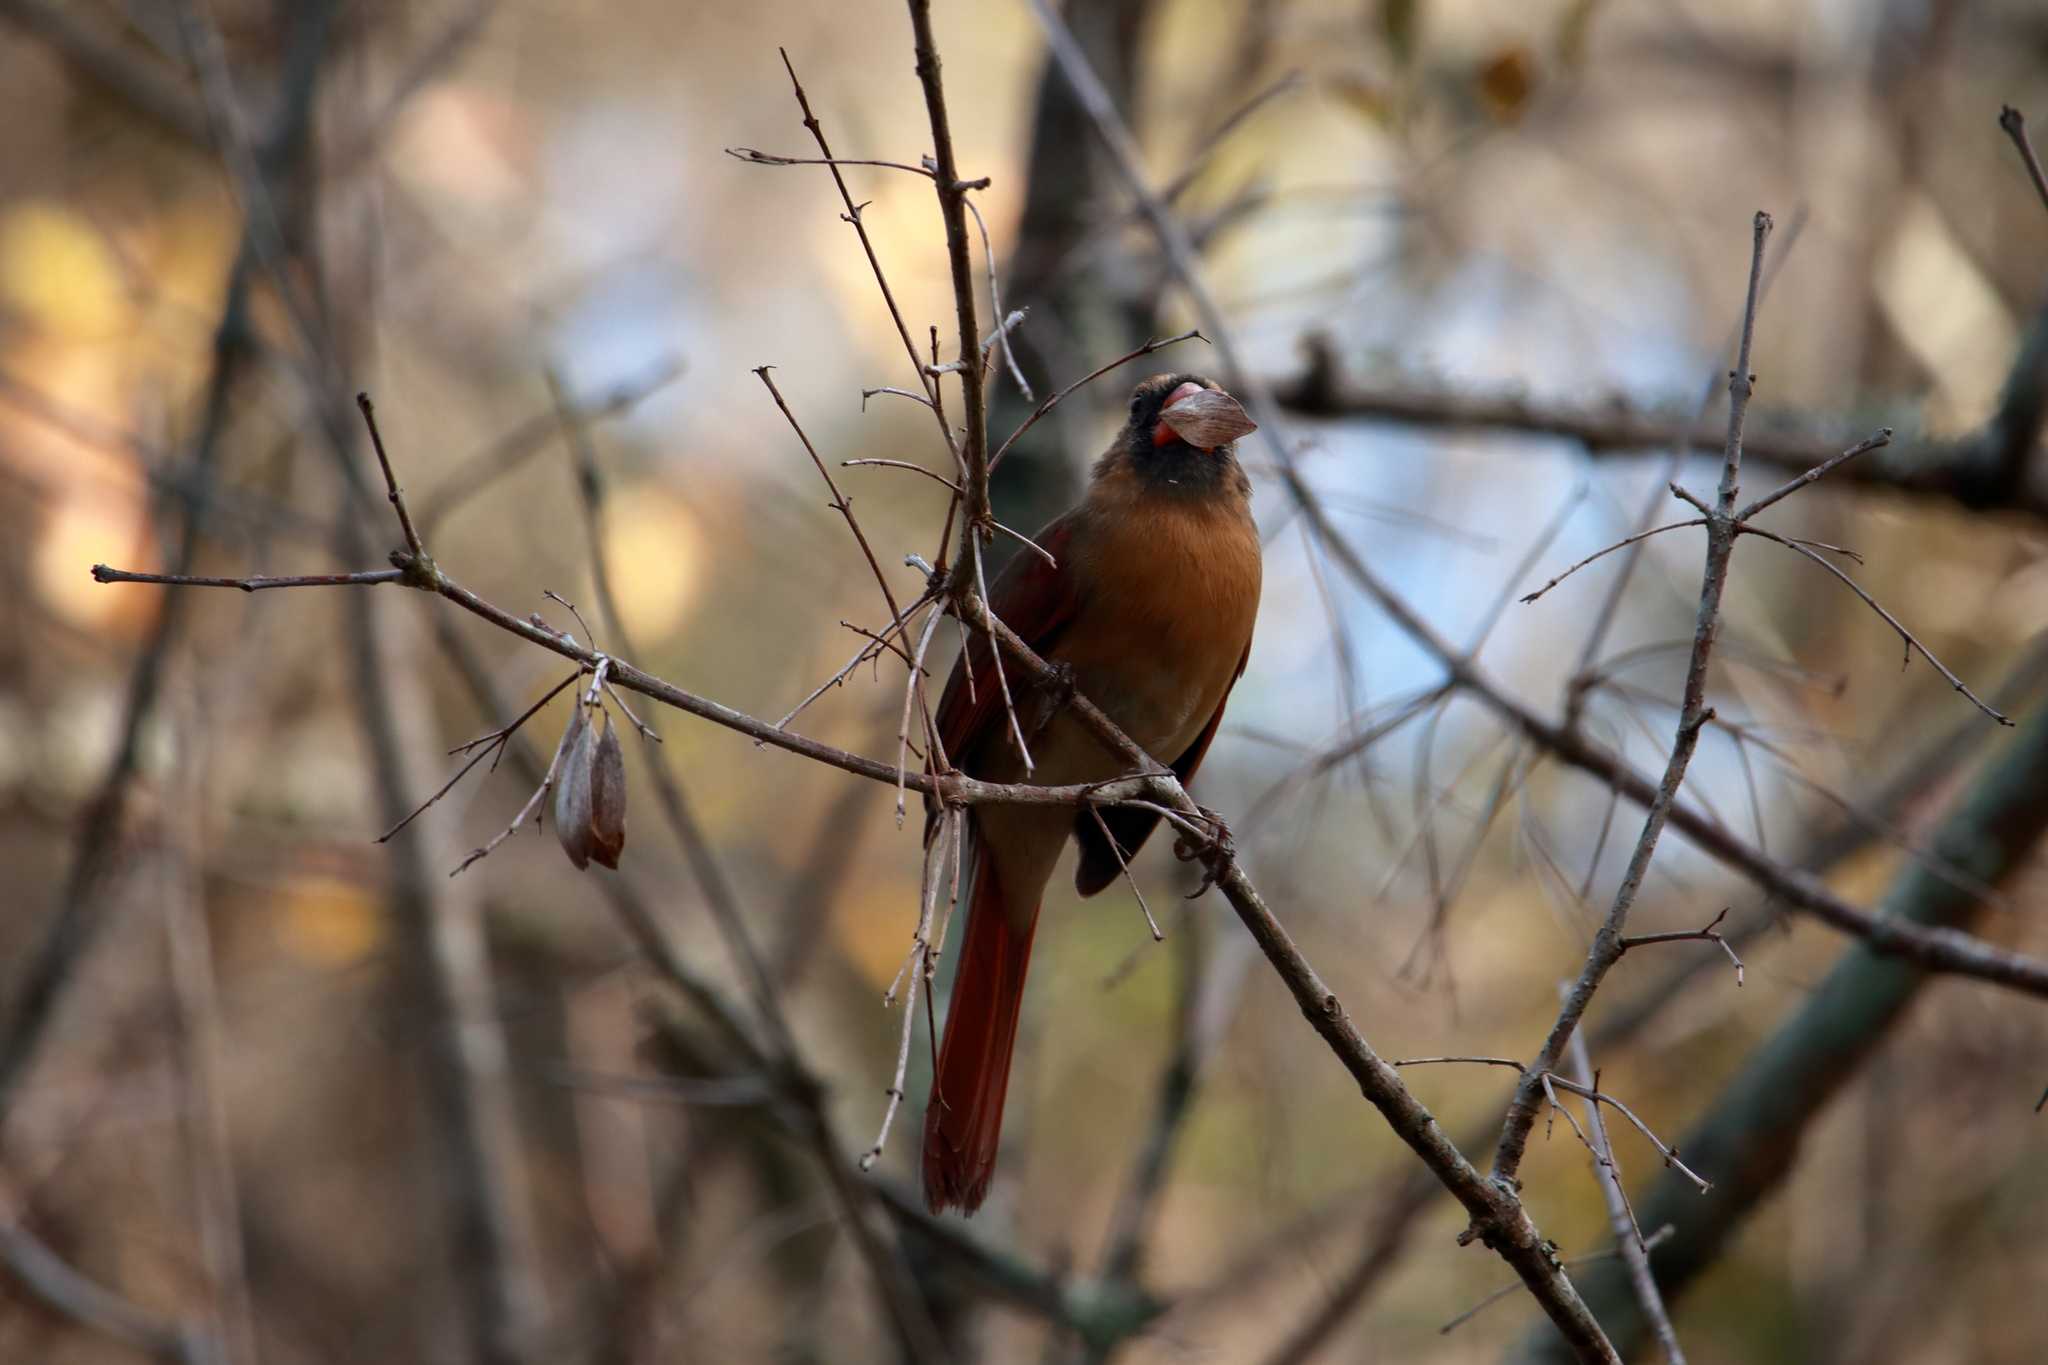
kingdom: Animalia
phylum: Chordata
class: Aves
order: Passeriformes
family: Cardinalidae
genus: Cardinalis
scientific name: Cardinalis cardinalis
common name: Northern cardinal
